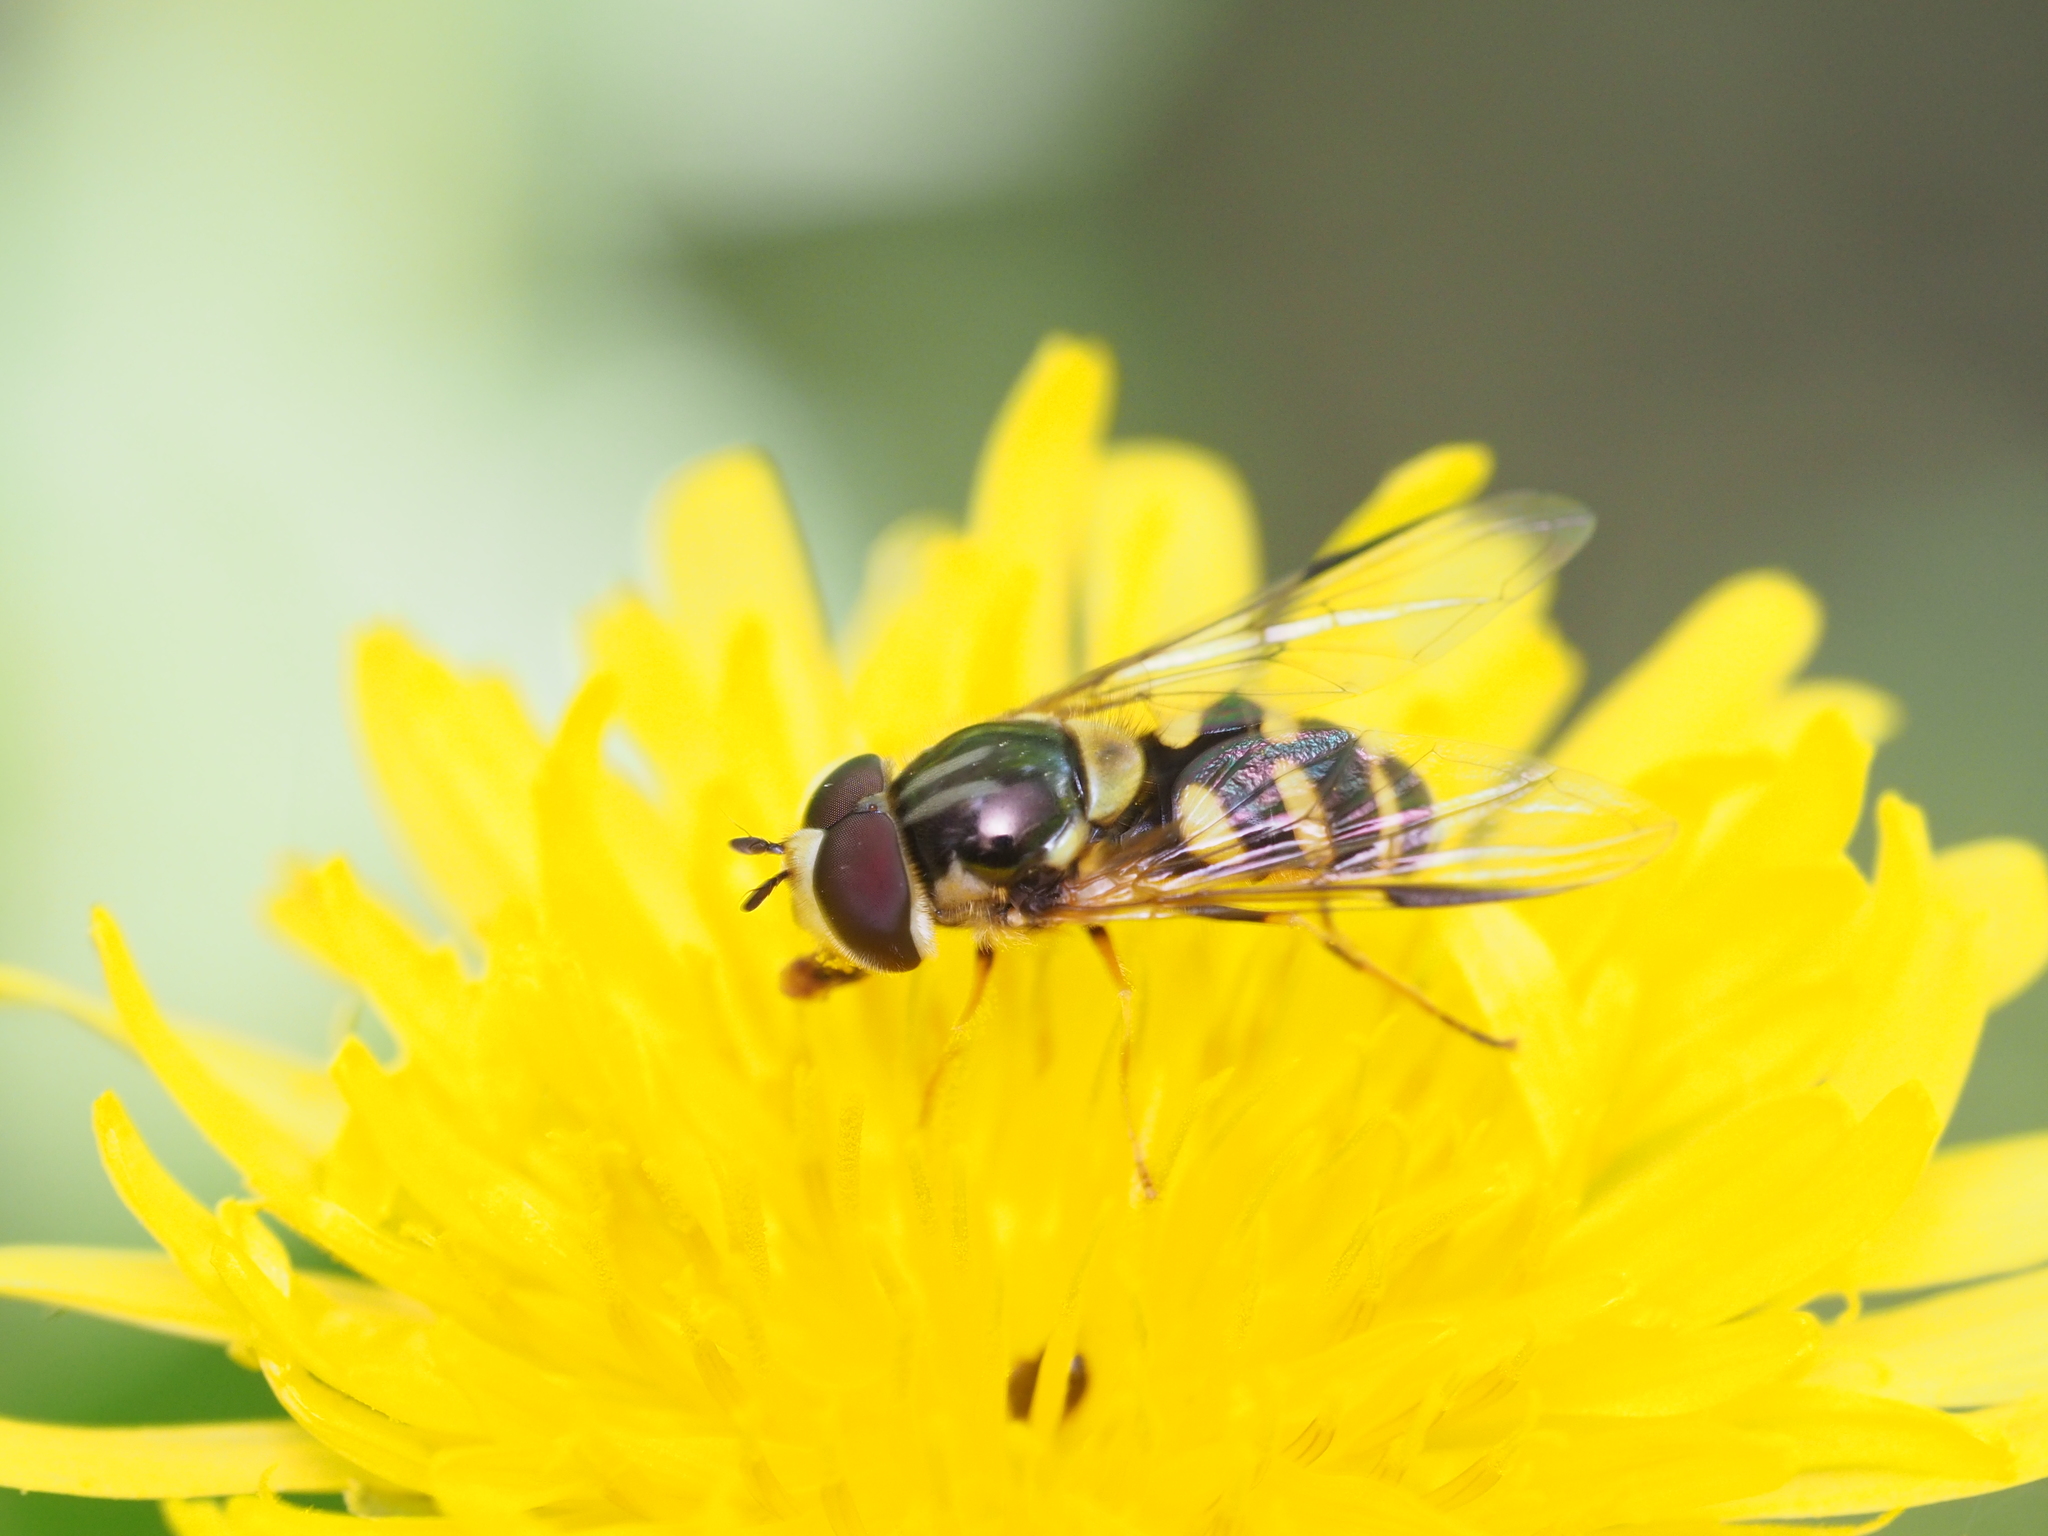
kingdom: Animalia
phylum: Arthropoda
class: Insecta
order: Diptera
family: Syrphidae
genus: Dasysyrphus
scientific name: Dasysyrphus albostriatus
